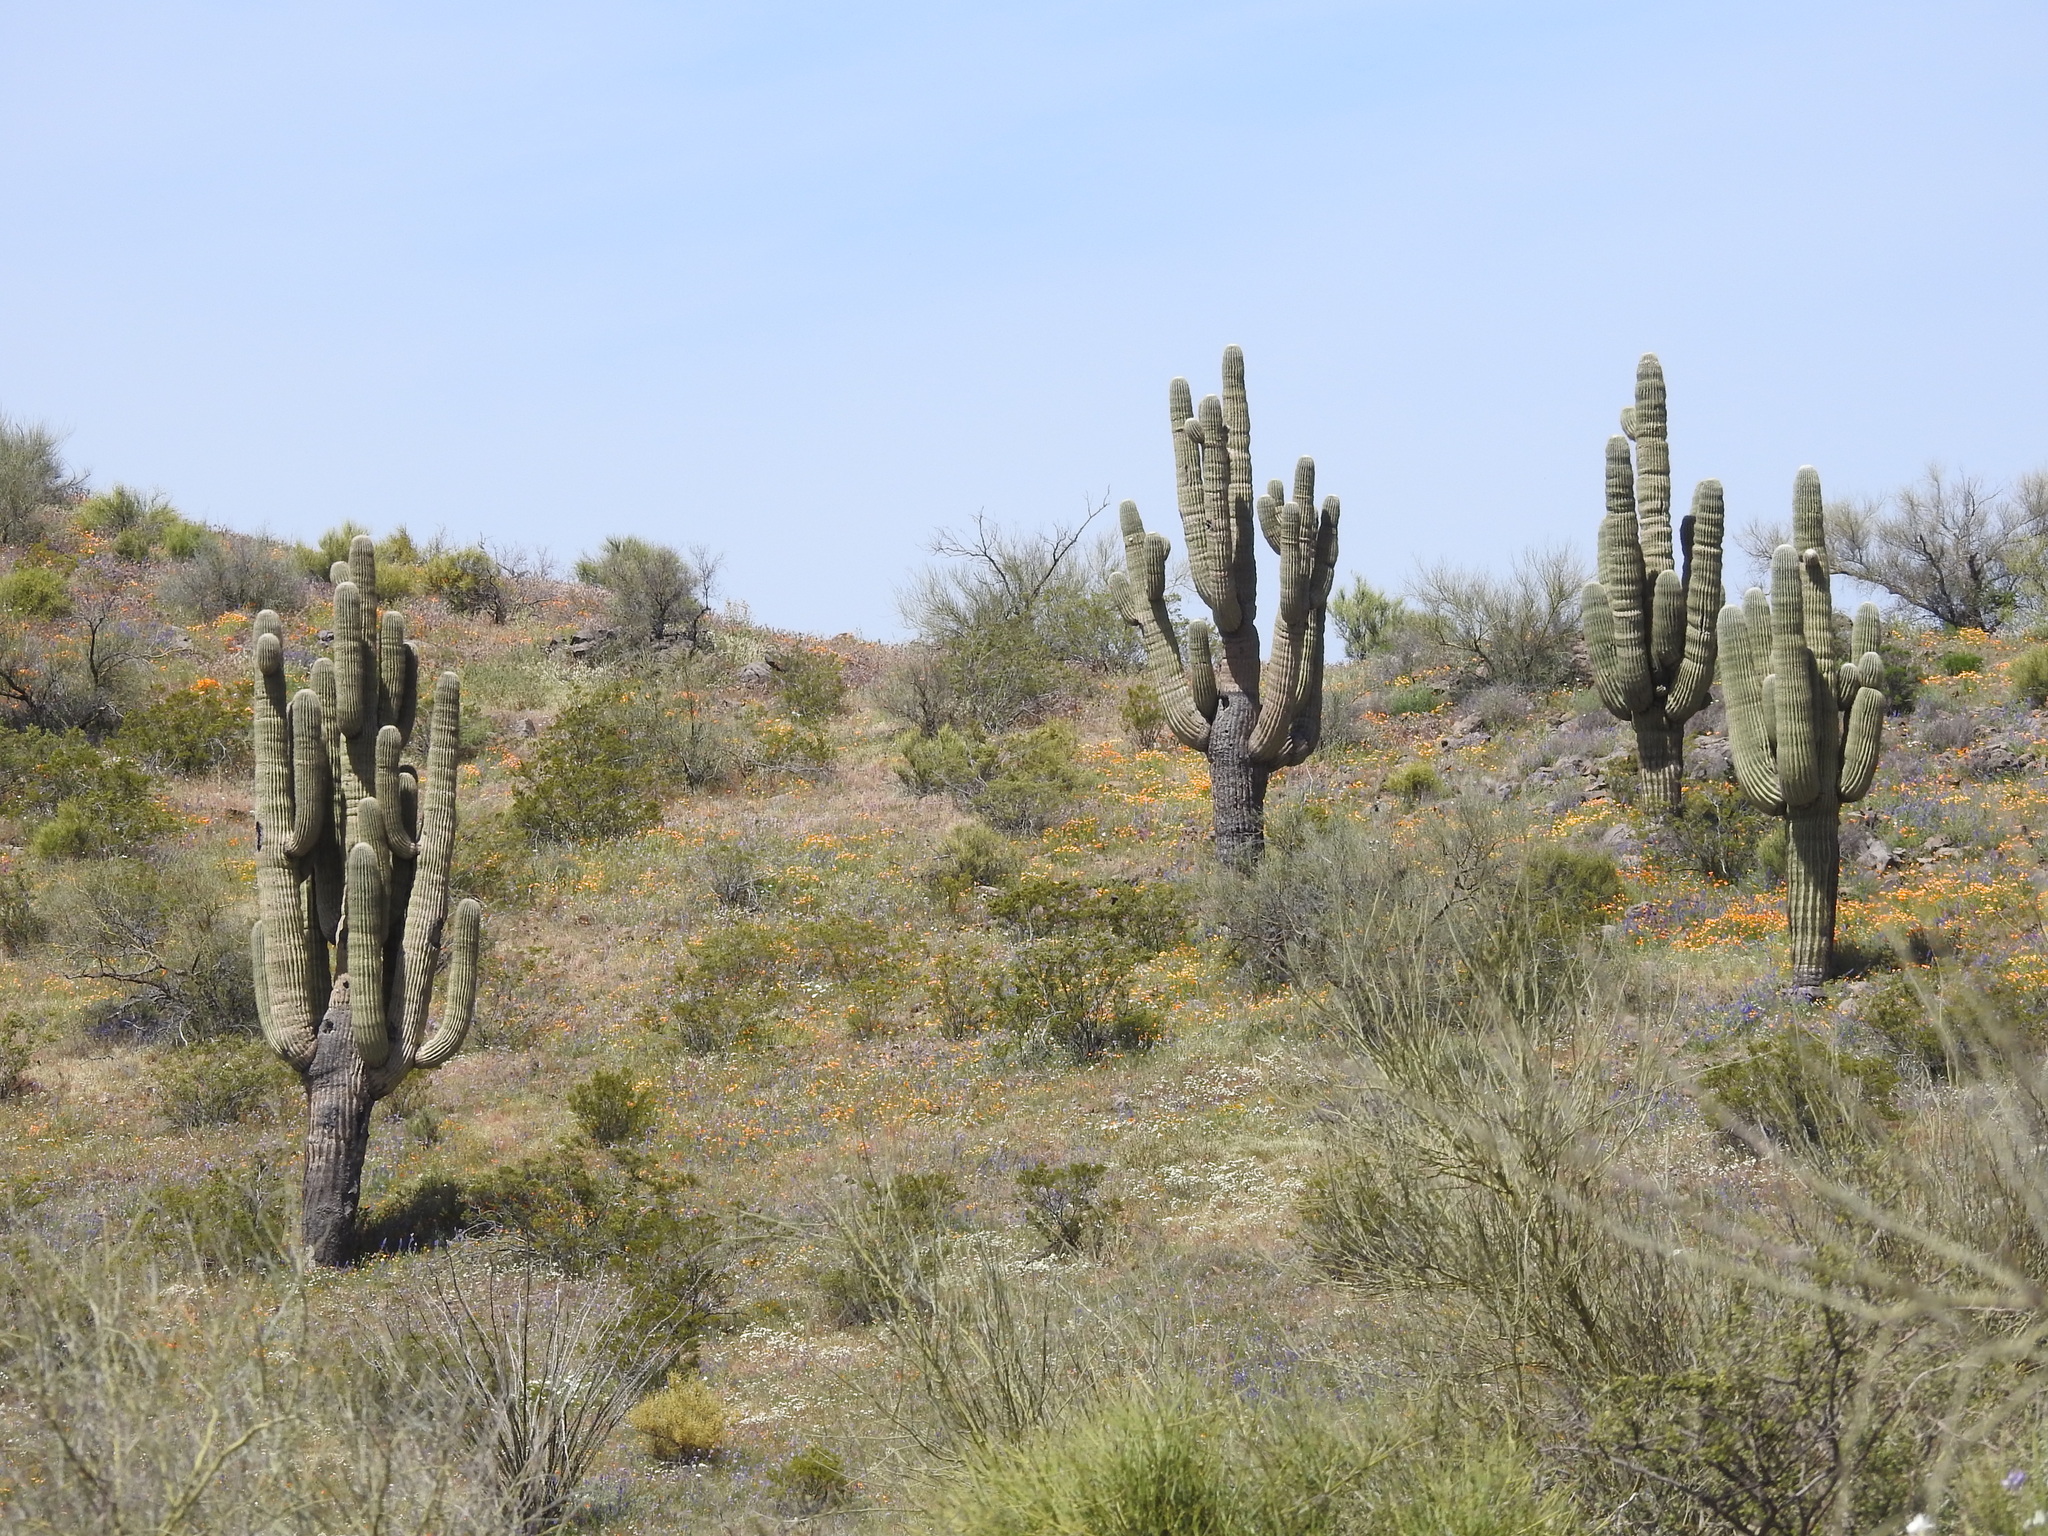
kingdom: Plantae
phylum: Tracheophyta
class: Magnoliopsida
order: Caryophyllales
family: Cactaceae
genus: Carnegiea
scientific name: Carnegiea gigantea
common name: Saguaro
